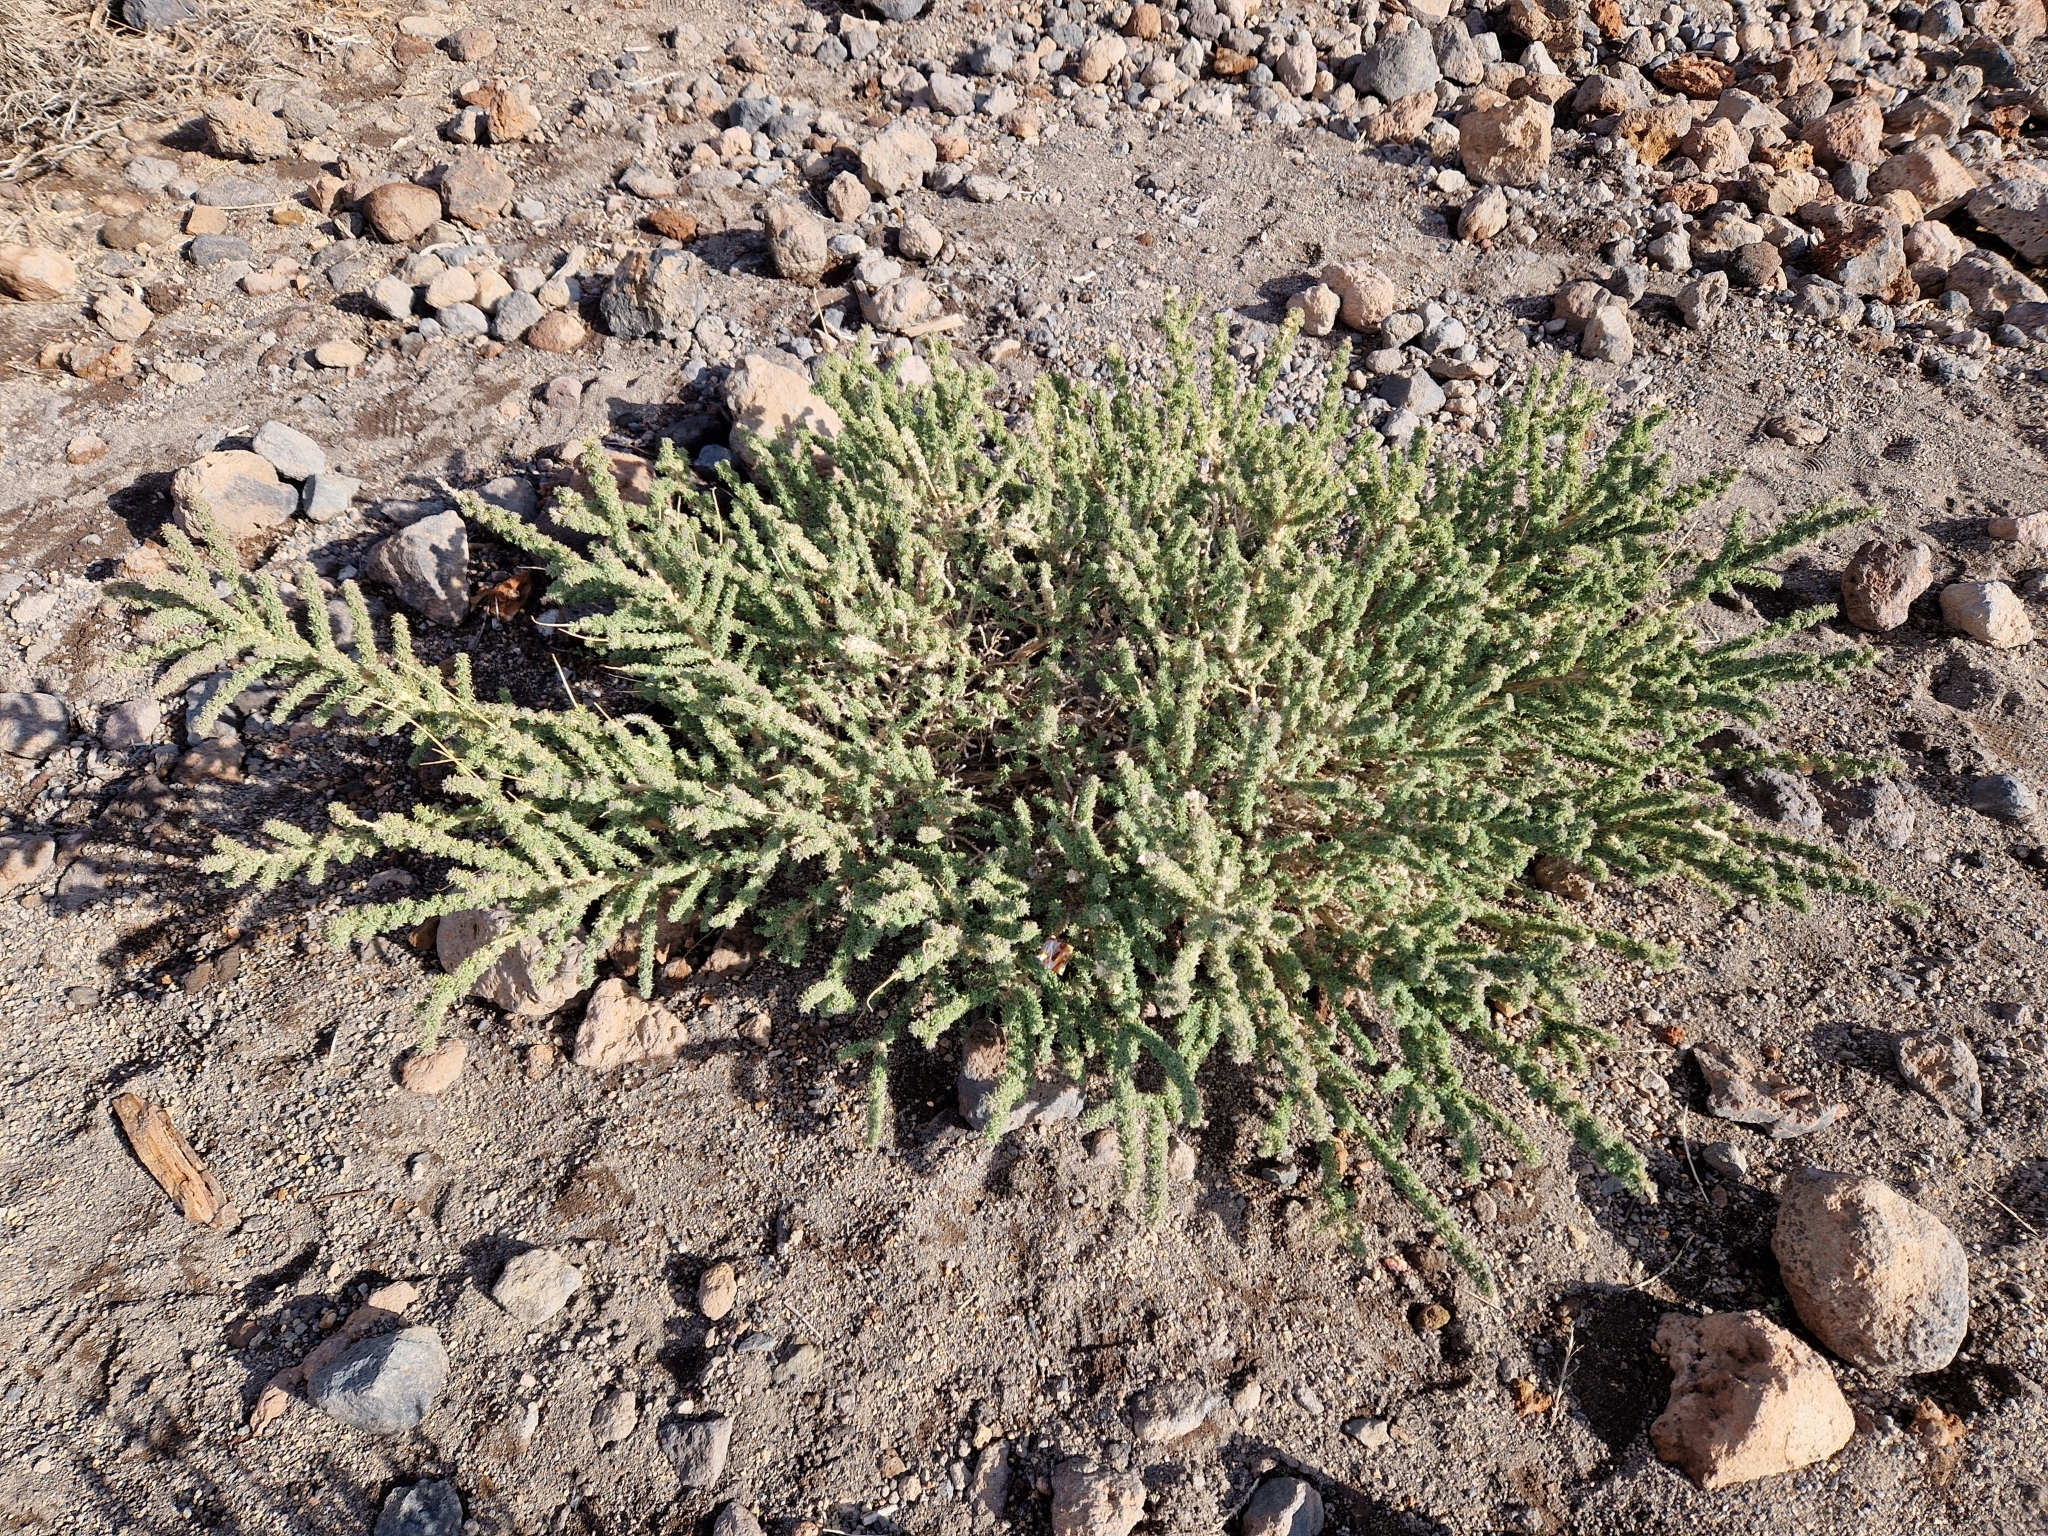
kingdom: Plantae
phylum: Tracheophyta
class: Magnoliopsida
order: Fabales
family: Fabaceae
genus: Adenocarpus
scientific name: Adenocarpus viscosus
